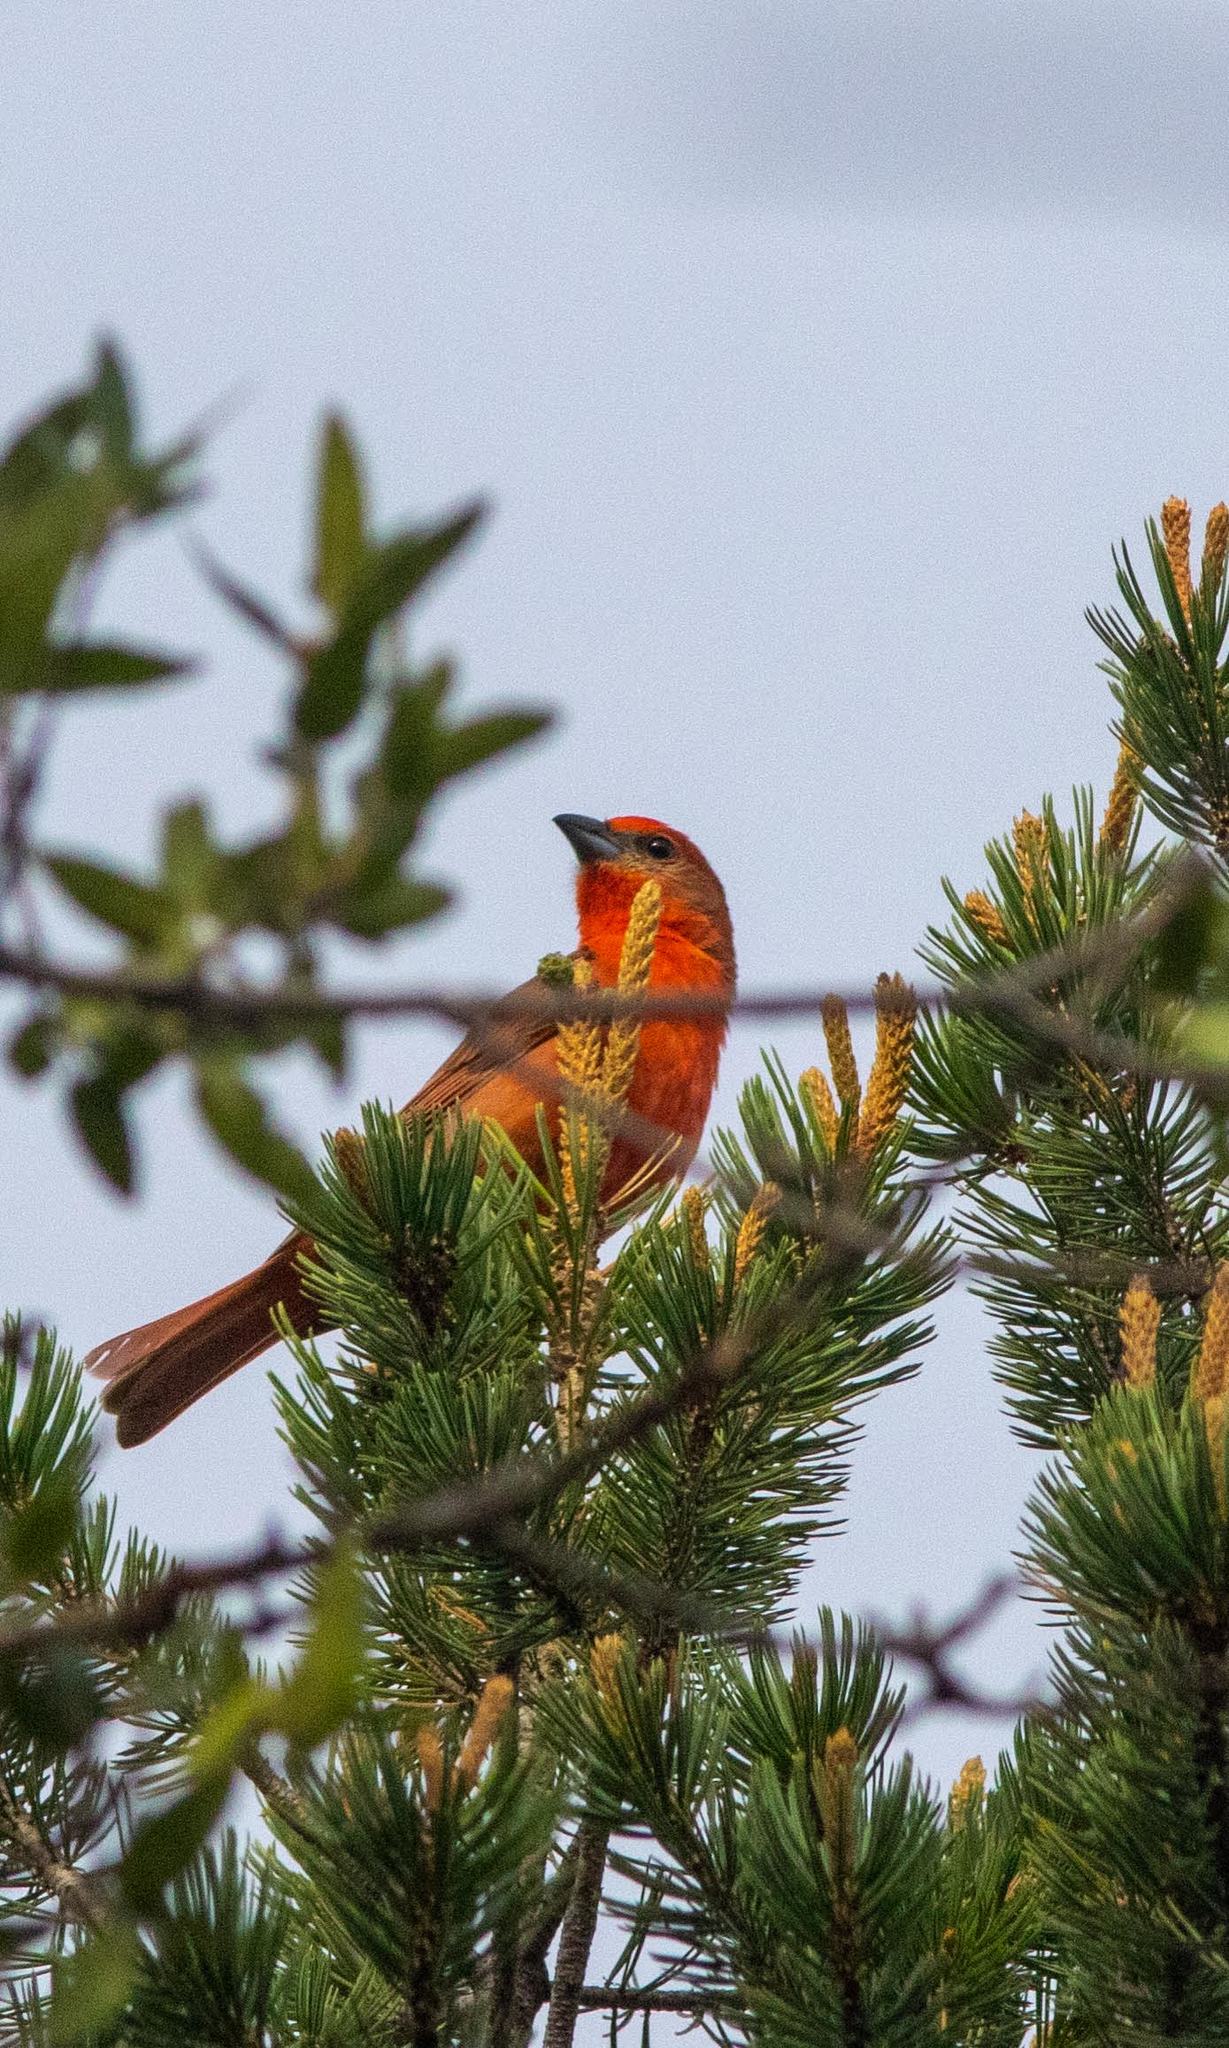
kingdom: Animalia
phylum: Chordata
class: Aves
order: Passeriformes
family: Cardinalidae
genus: Piranga
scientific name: Piranga flava
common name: Red tanager
